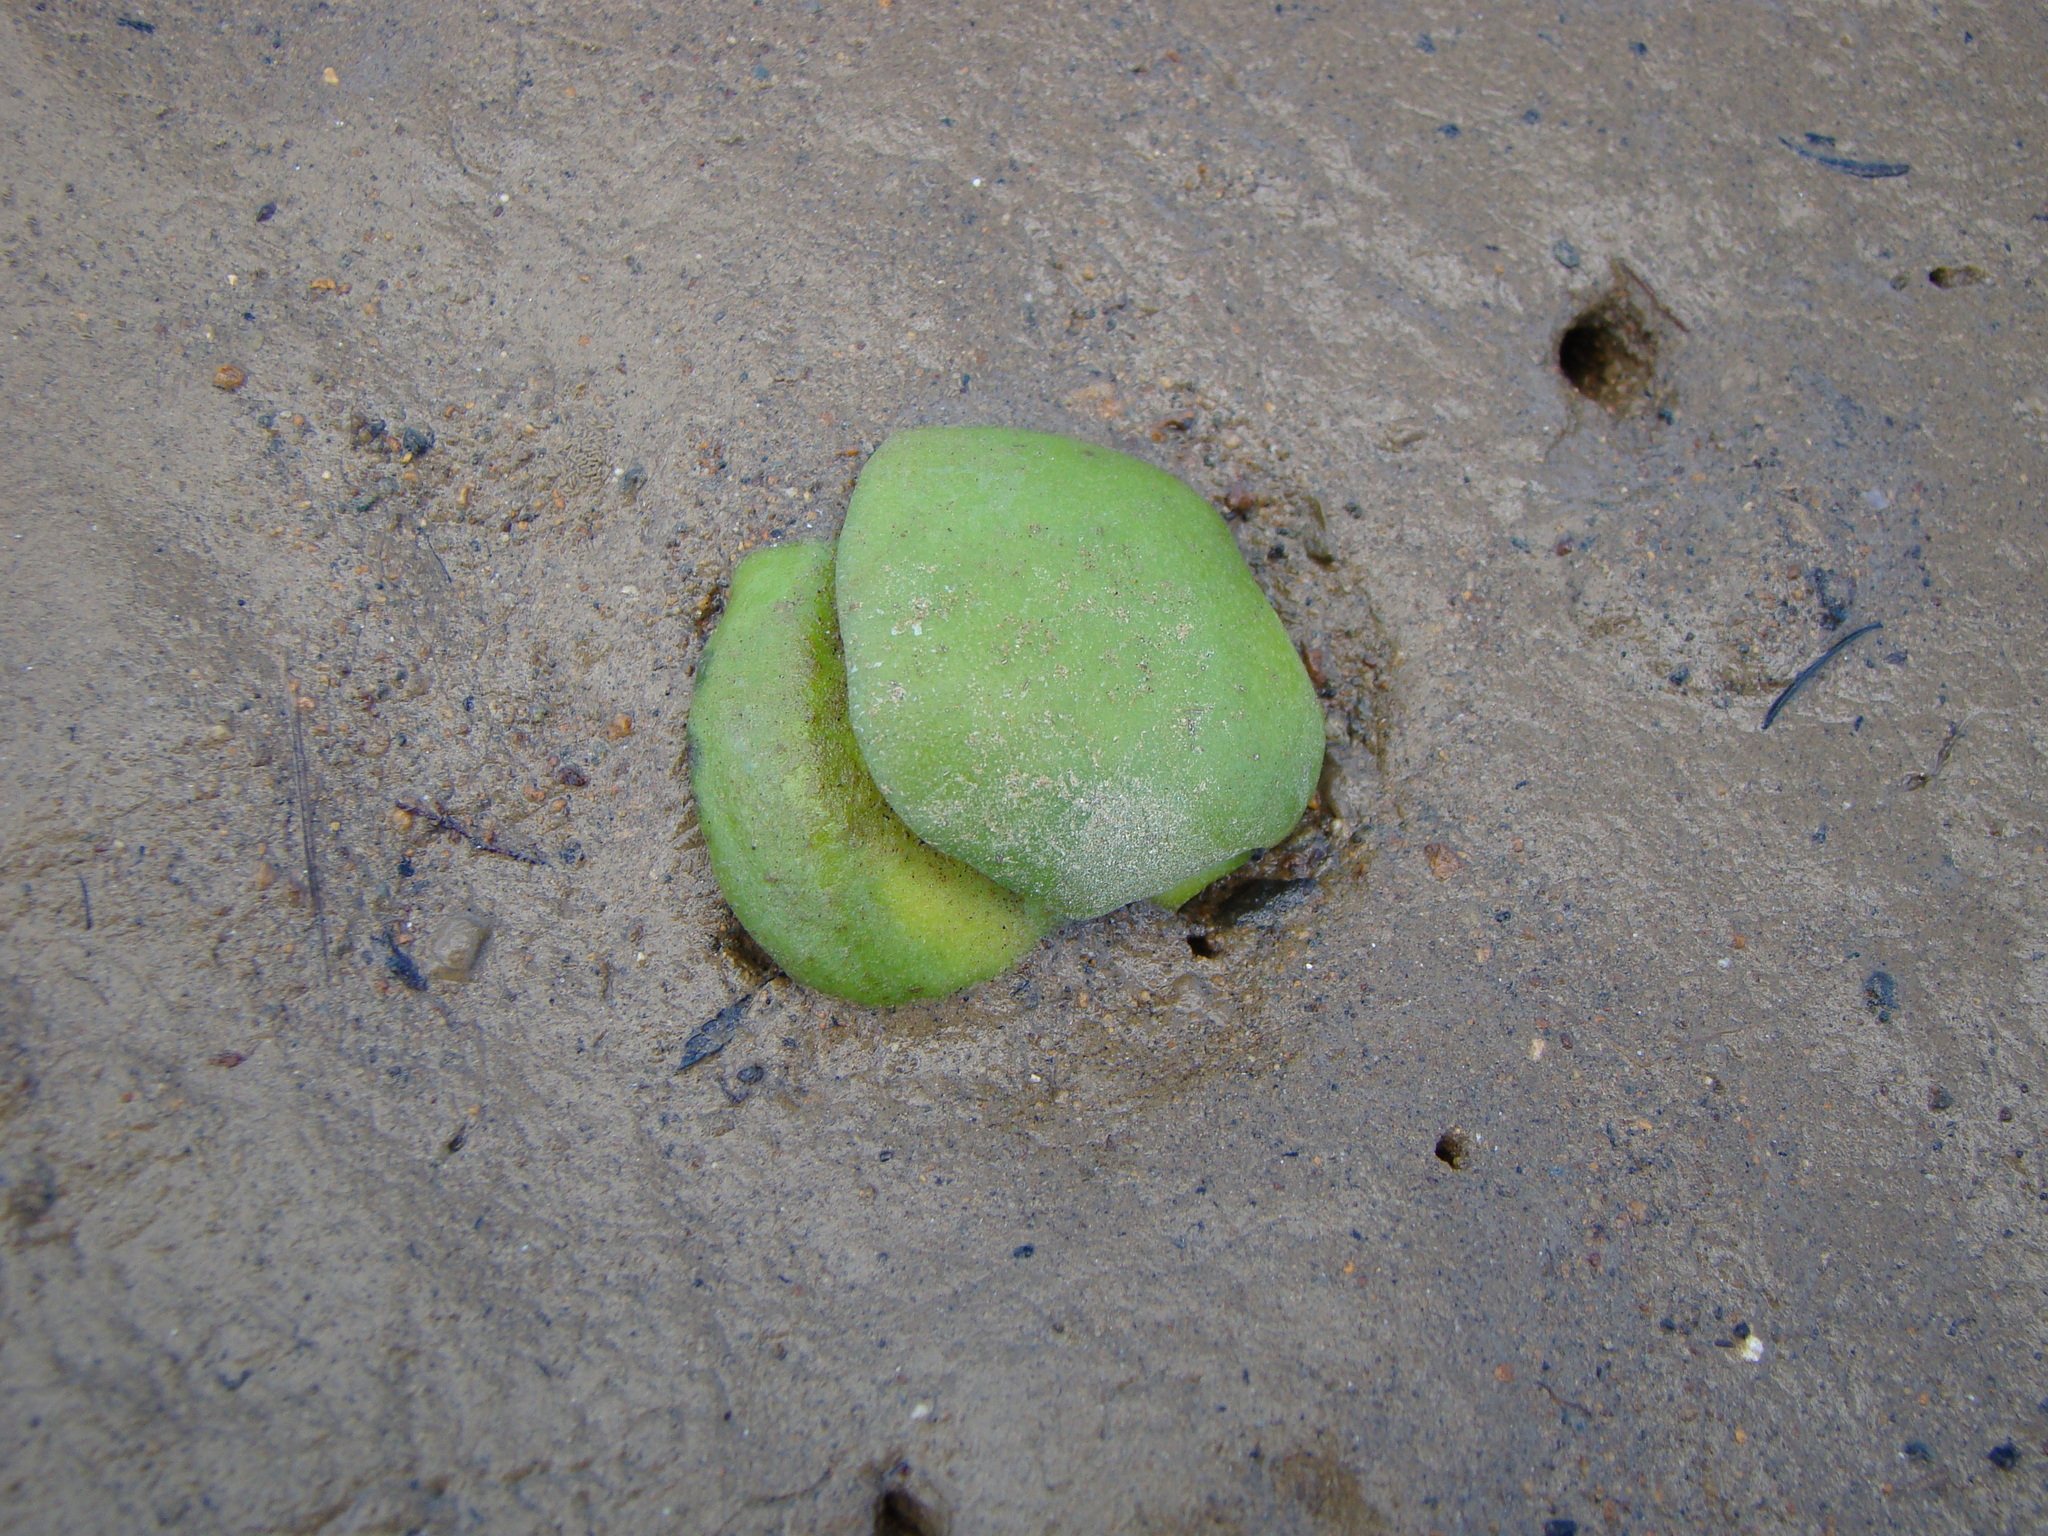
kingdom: Plantae
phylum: Tracheophyta
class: Magnoliopsida
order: Lamiales
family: Acanthaceae
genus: Avicennia
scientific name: Avicennia marina
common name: Gray mangrove
